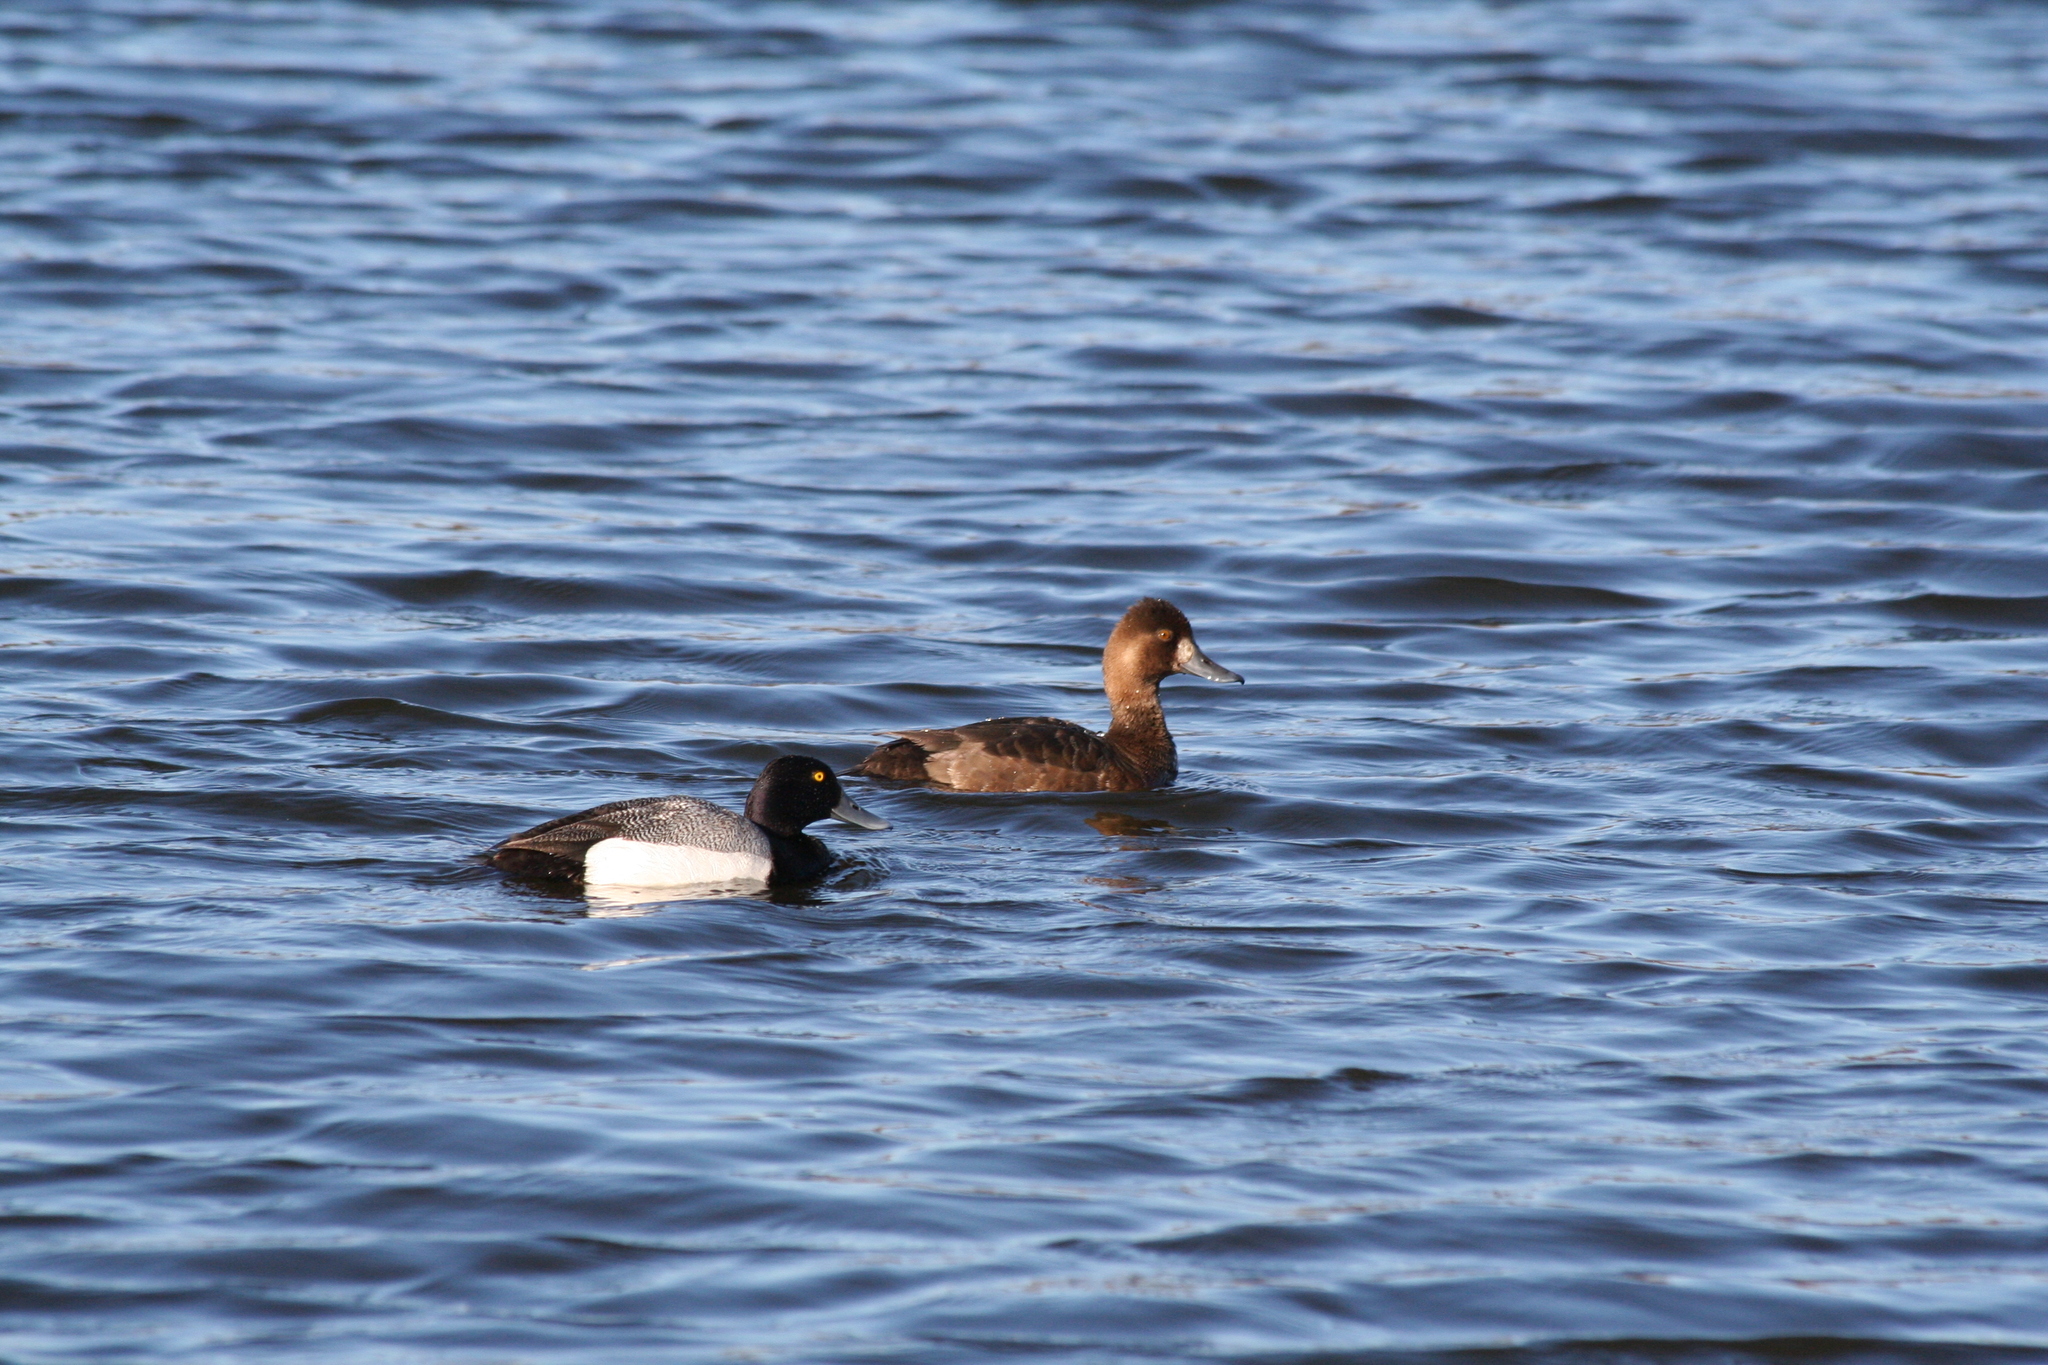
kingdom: Animalia
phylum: Chordata
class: Aves
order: Anseriformes
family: Anatidae
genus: Aythya
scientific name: Aythya marila
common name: Greater scaup
